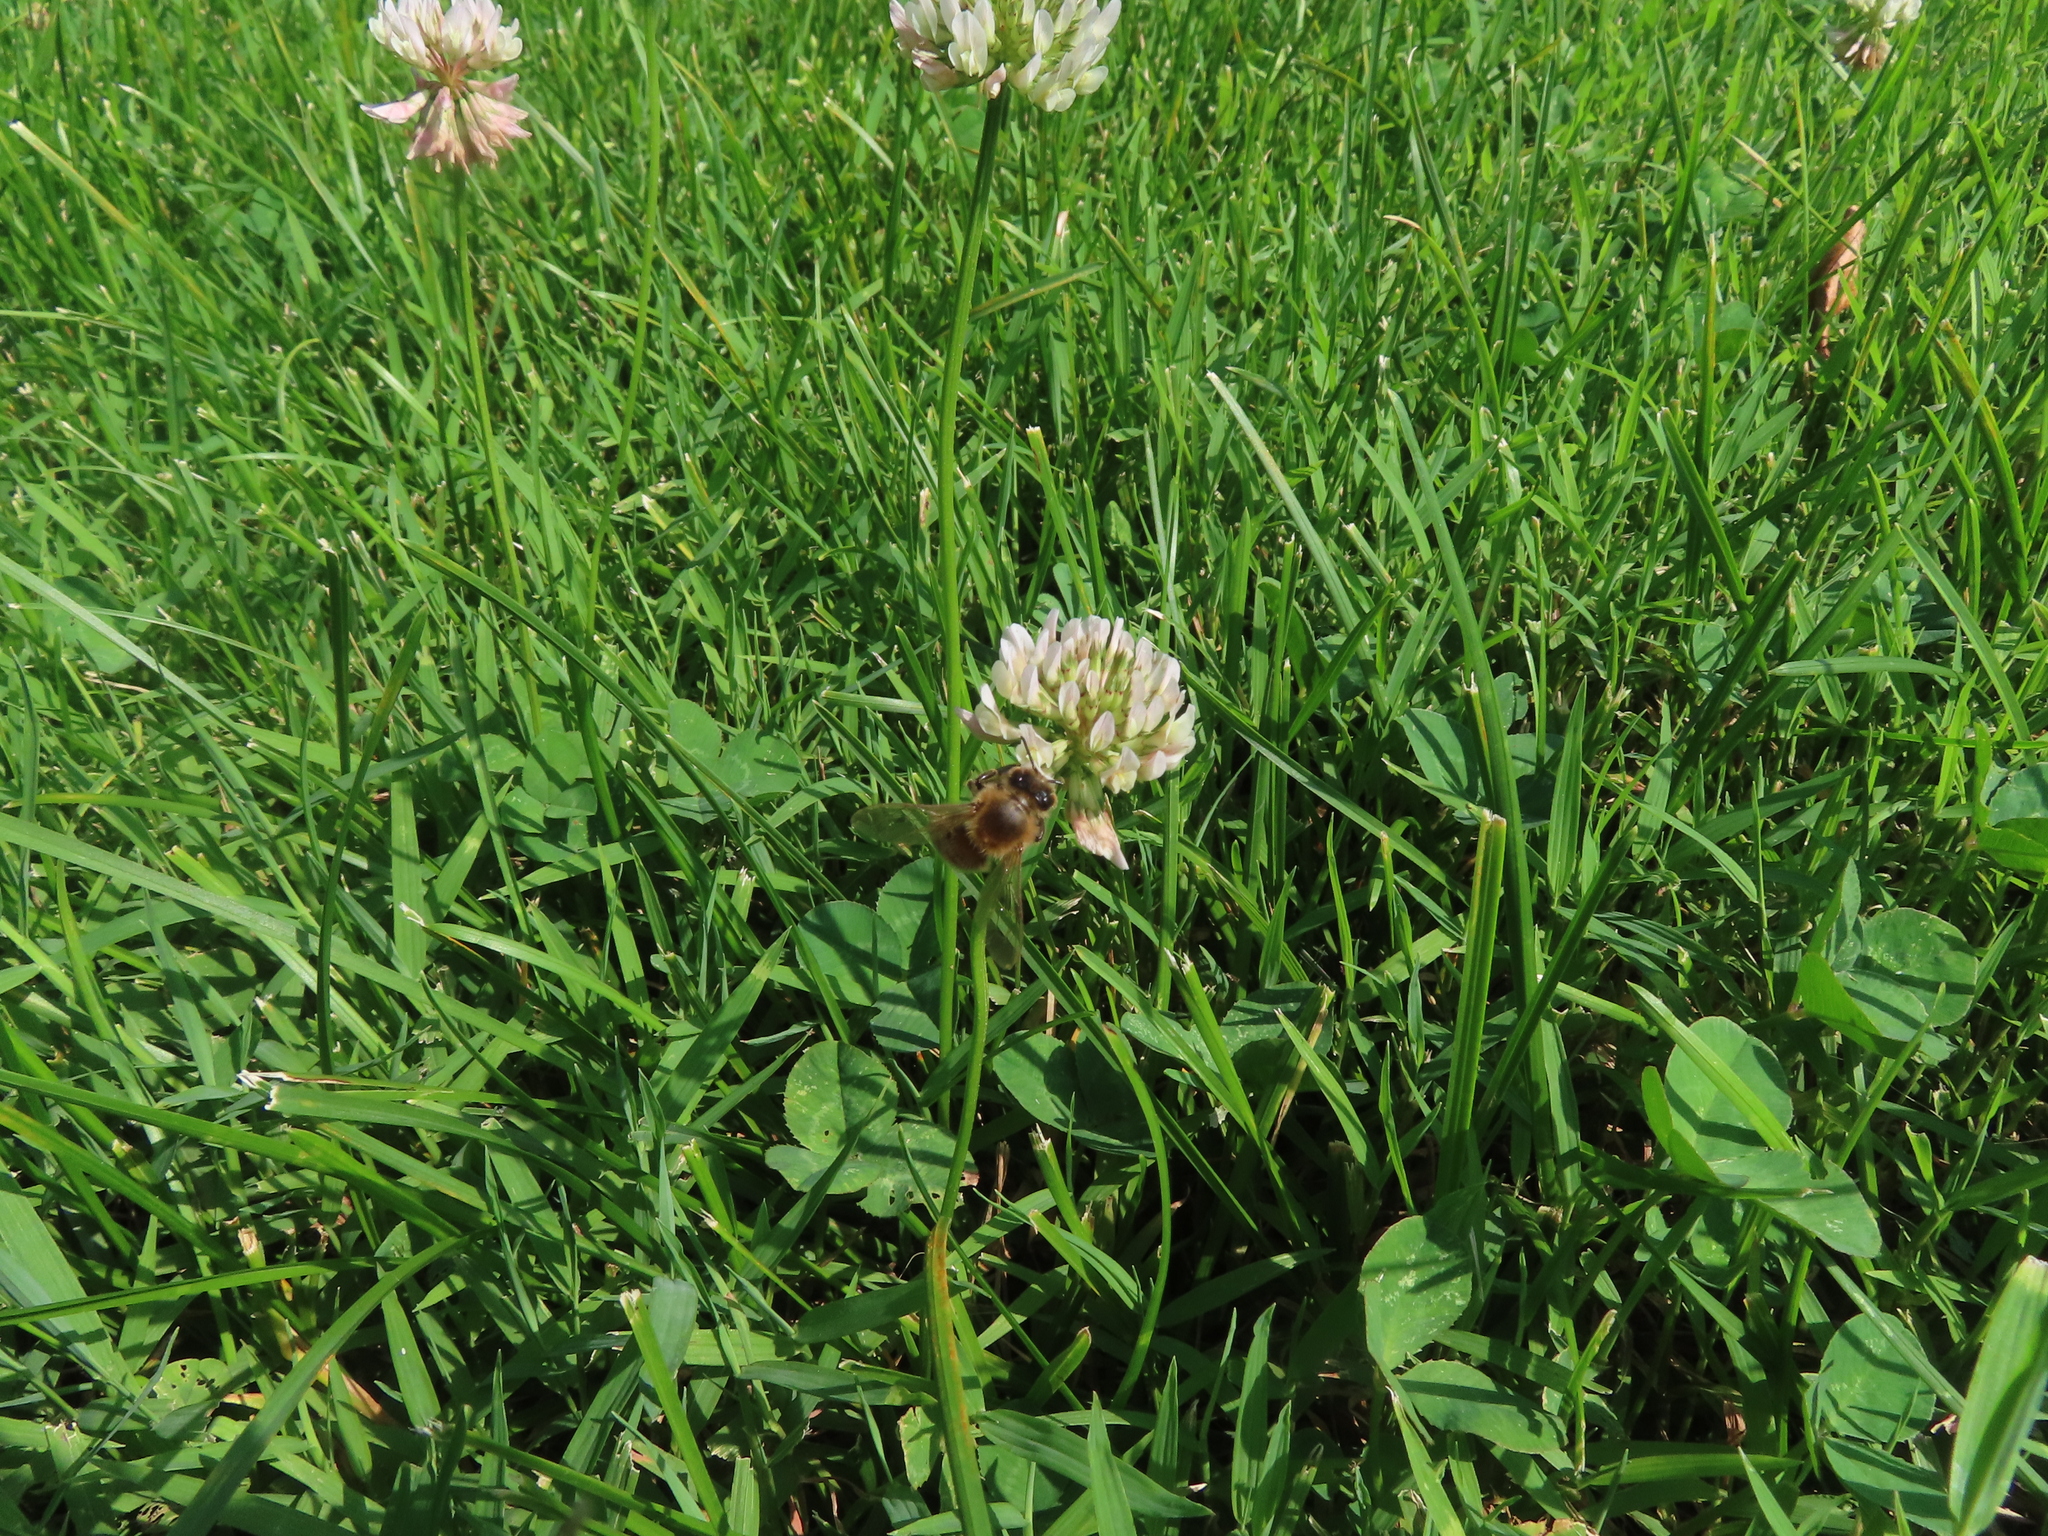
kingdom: Animalia
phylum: Arthropoda
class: Insecta
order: Hymenoptera
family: Apidae
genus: Apis
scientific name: Apis mellifera
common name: Honey bee
